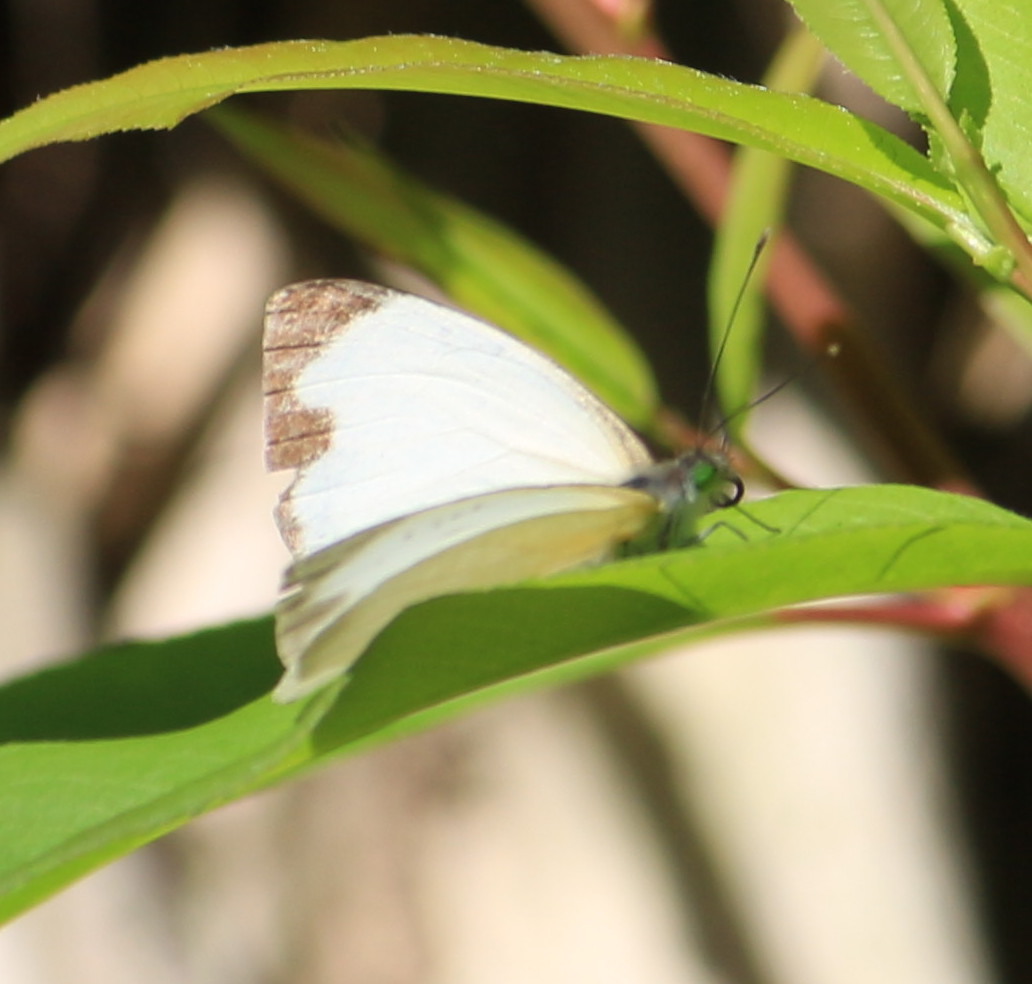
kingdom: Animalia
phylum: Arthropoda
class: Insecta
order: Lepidoptera
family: Pieridae
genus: Leptophobia
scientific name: Leptophobia aripa
